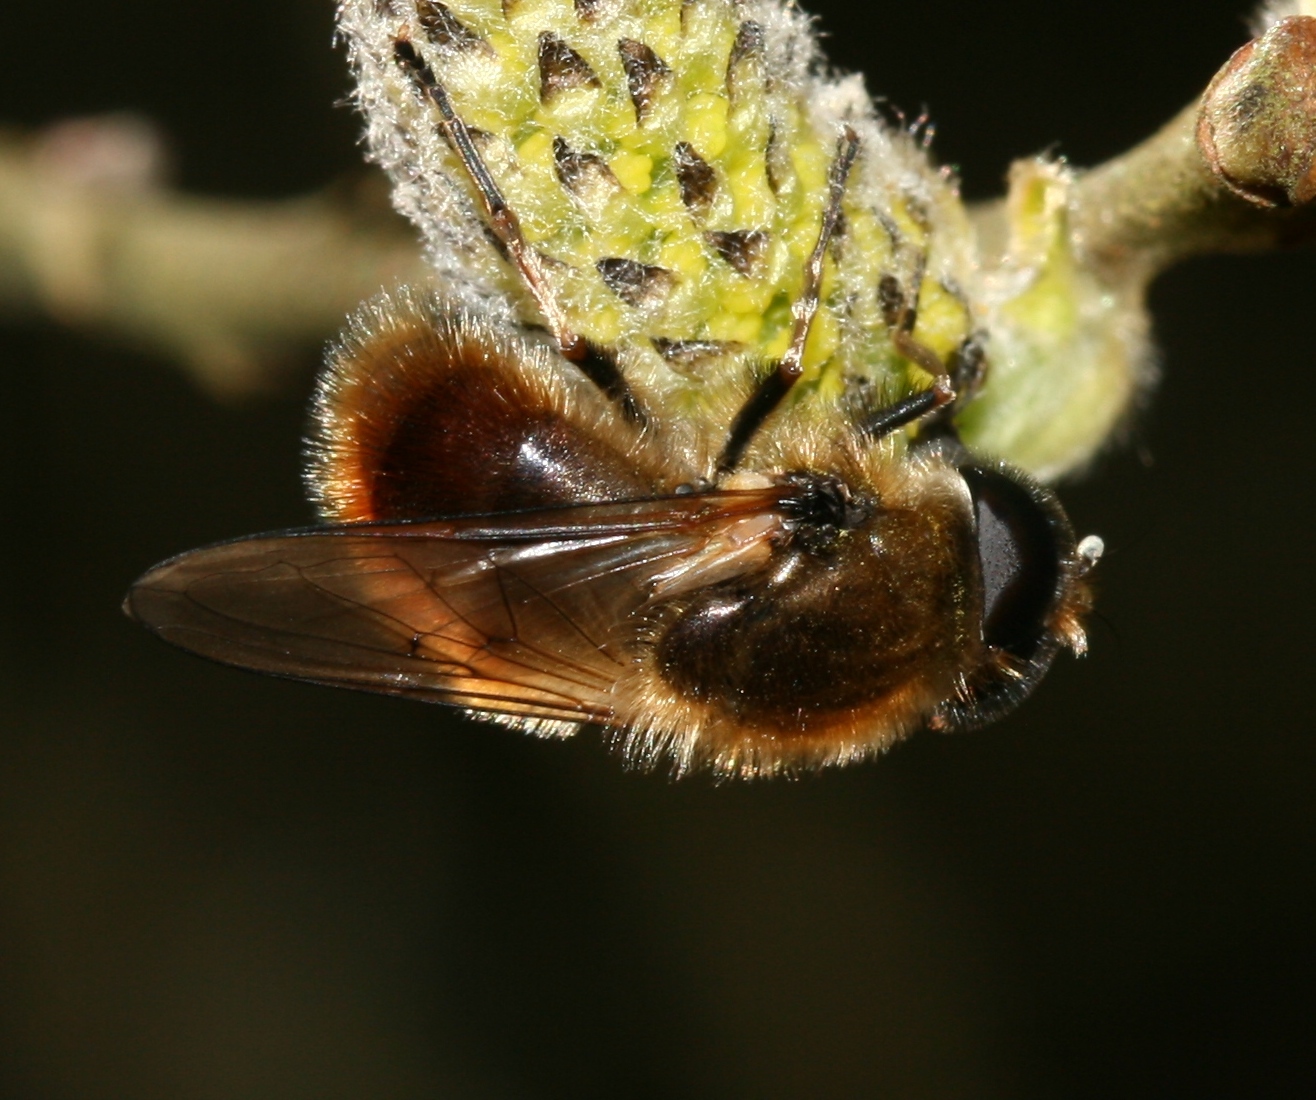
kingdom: Animalia
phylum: Arthropoda
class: Insecta
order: Diptera
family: Syrphidae
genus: Cheilosia
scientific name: Cheilosia corydon
